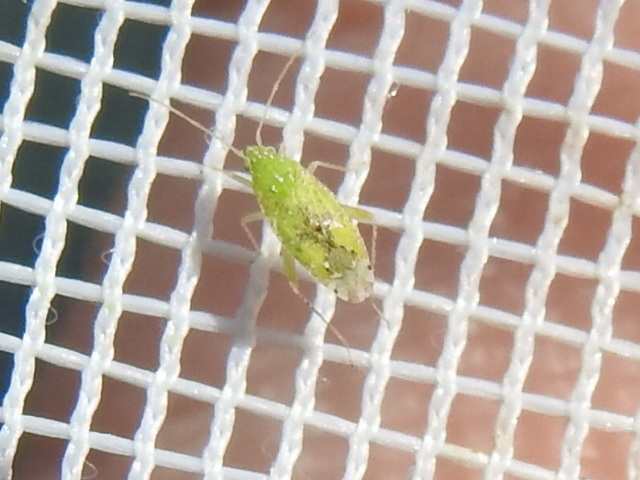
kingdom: Animalia
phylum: Arthropoda
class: Insecta
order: Hemiptera
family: Miridae
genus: Keltonia
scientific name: Keltonia tuckeri
